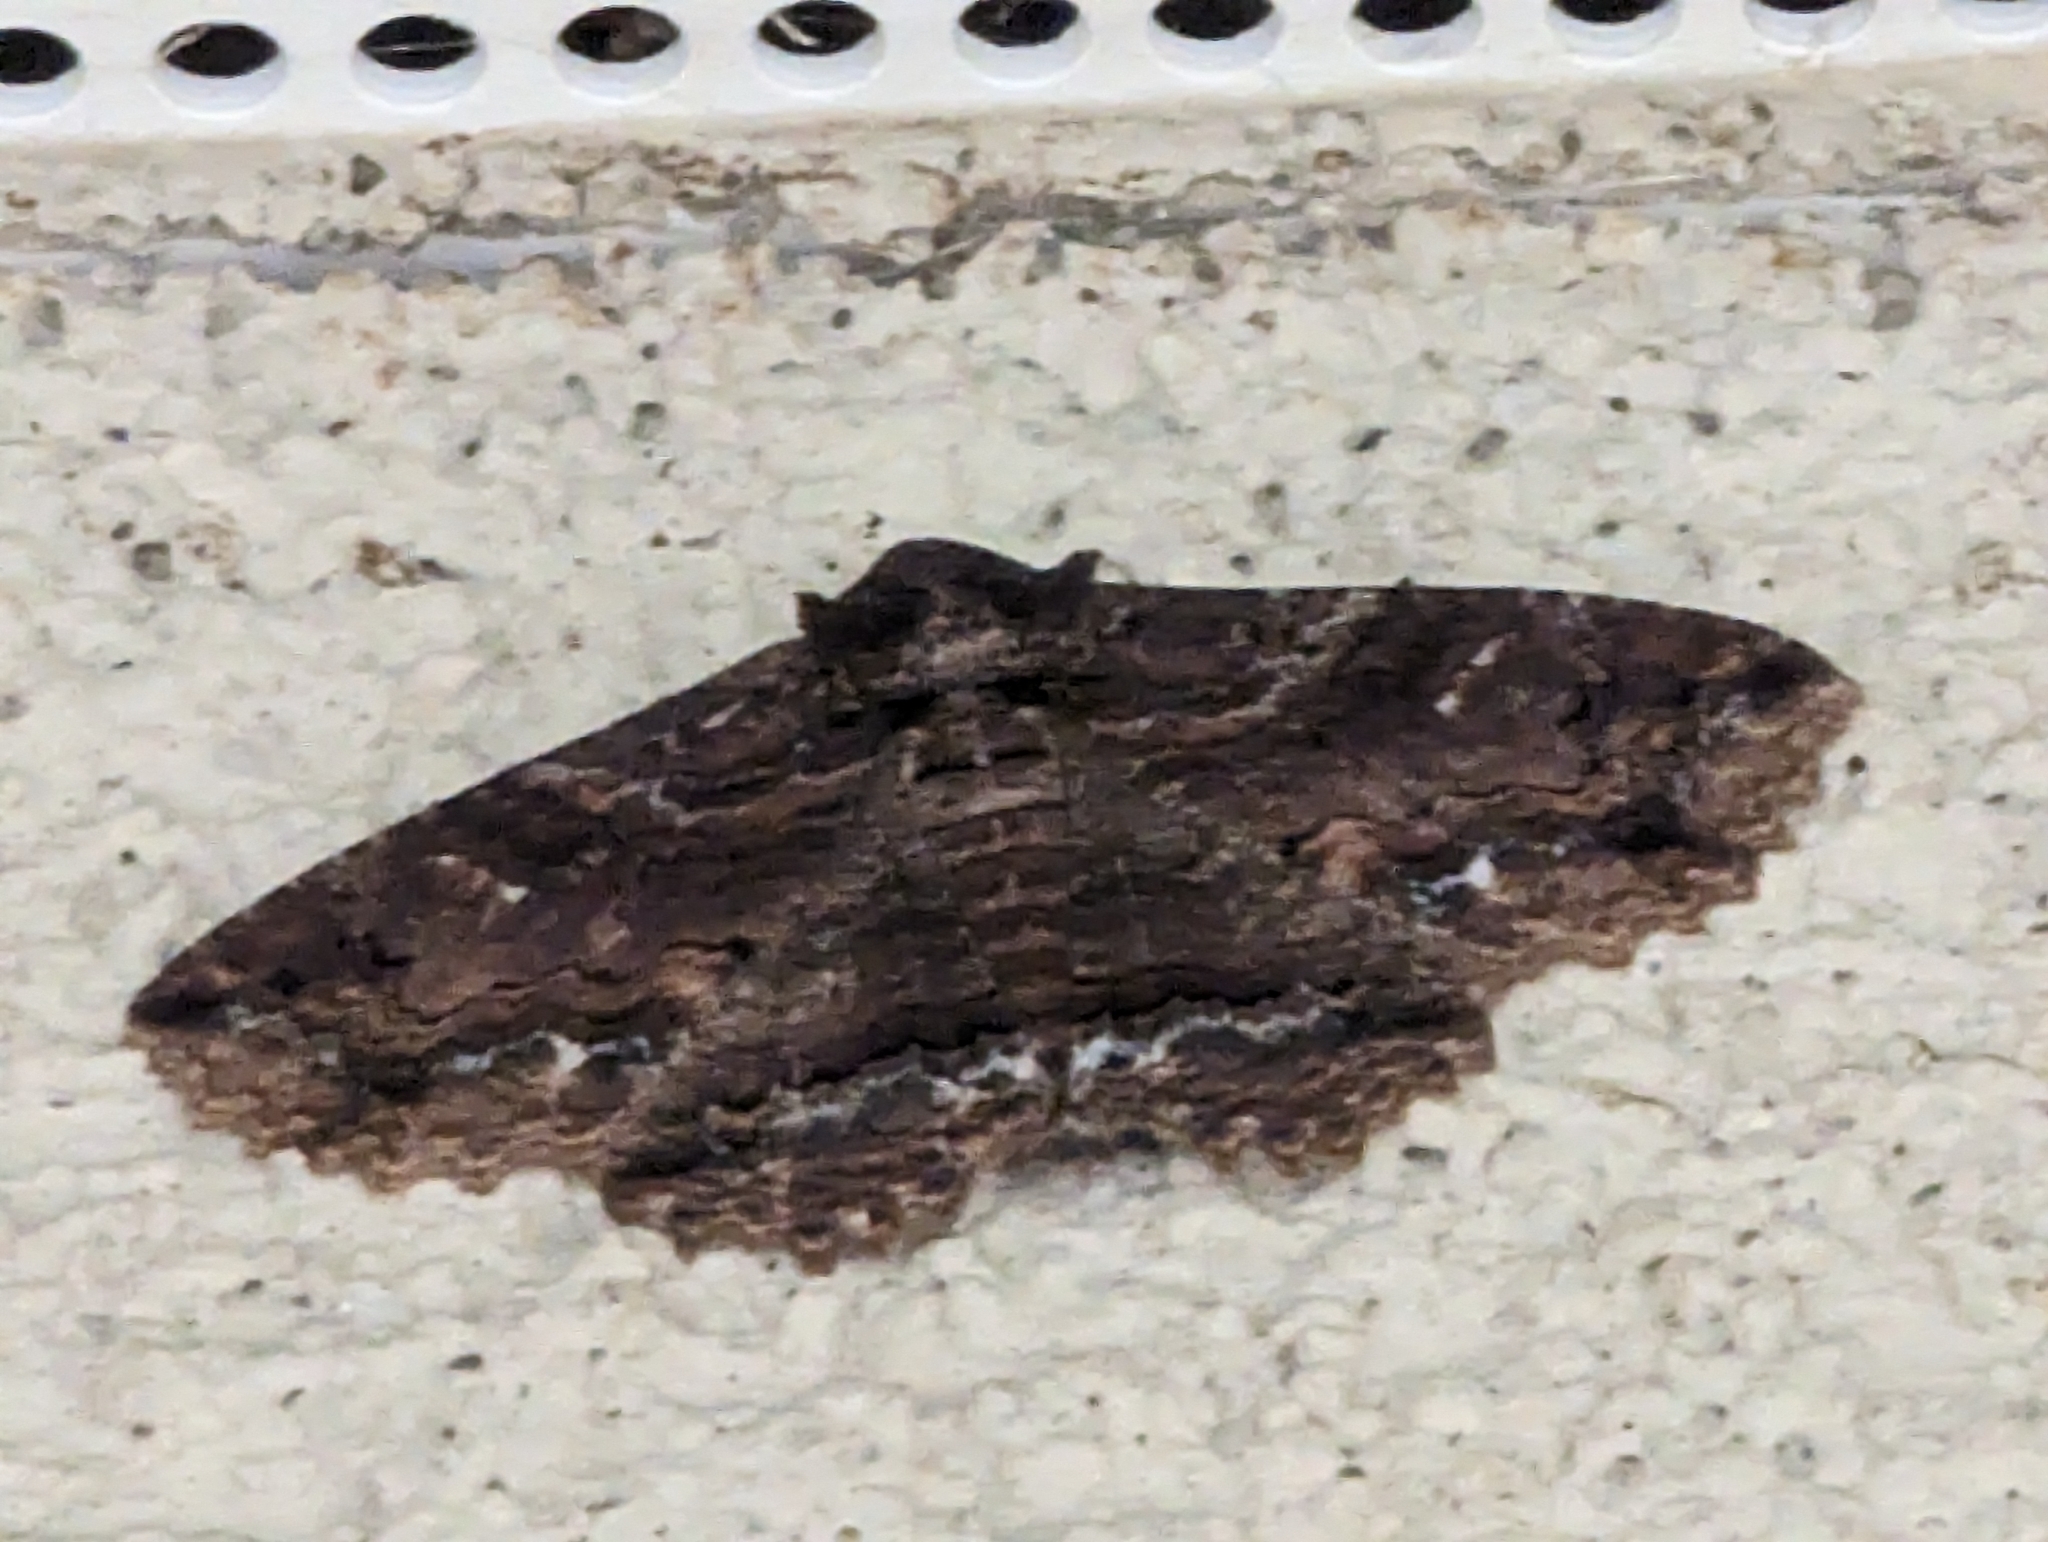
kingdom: Animalia
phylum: Arthropoda
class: Insecta
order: Lepidoptera
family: Erebidae
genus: Zale
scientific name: Zale lunata
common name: Lunate zale moth
